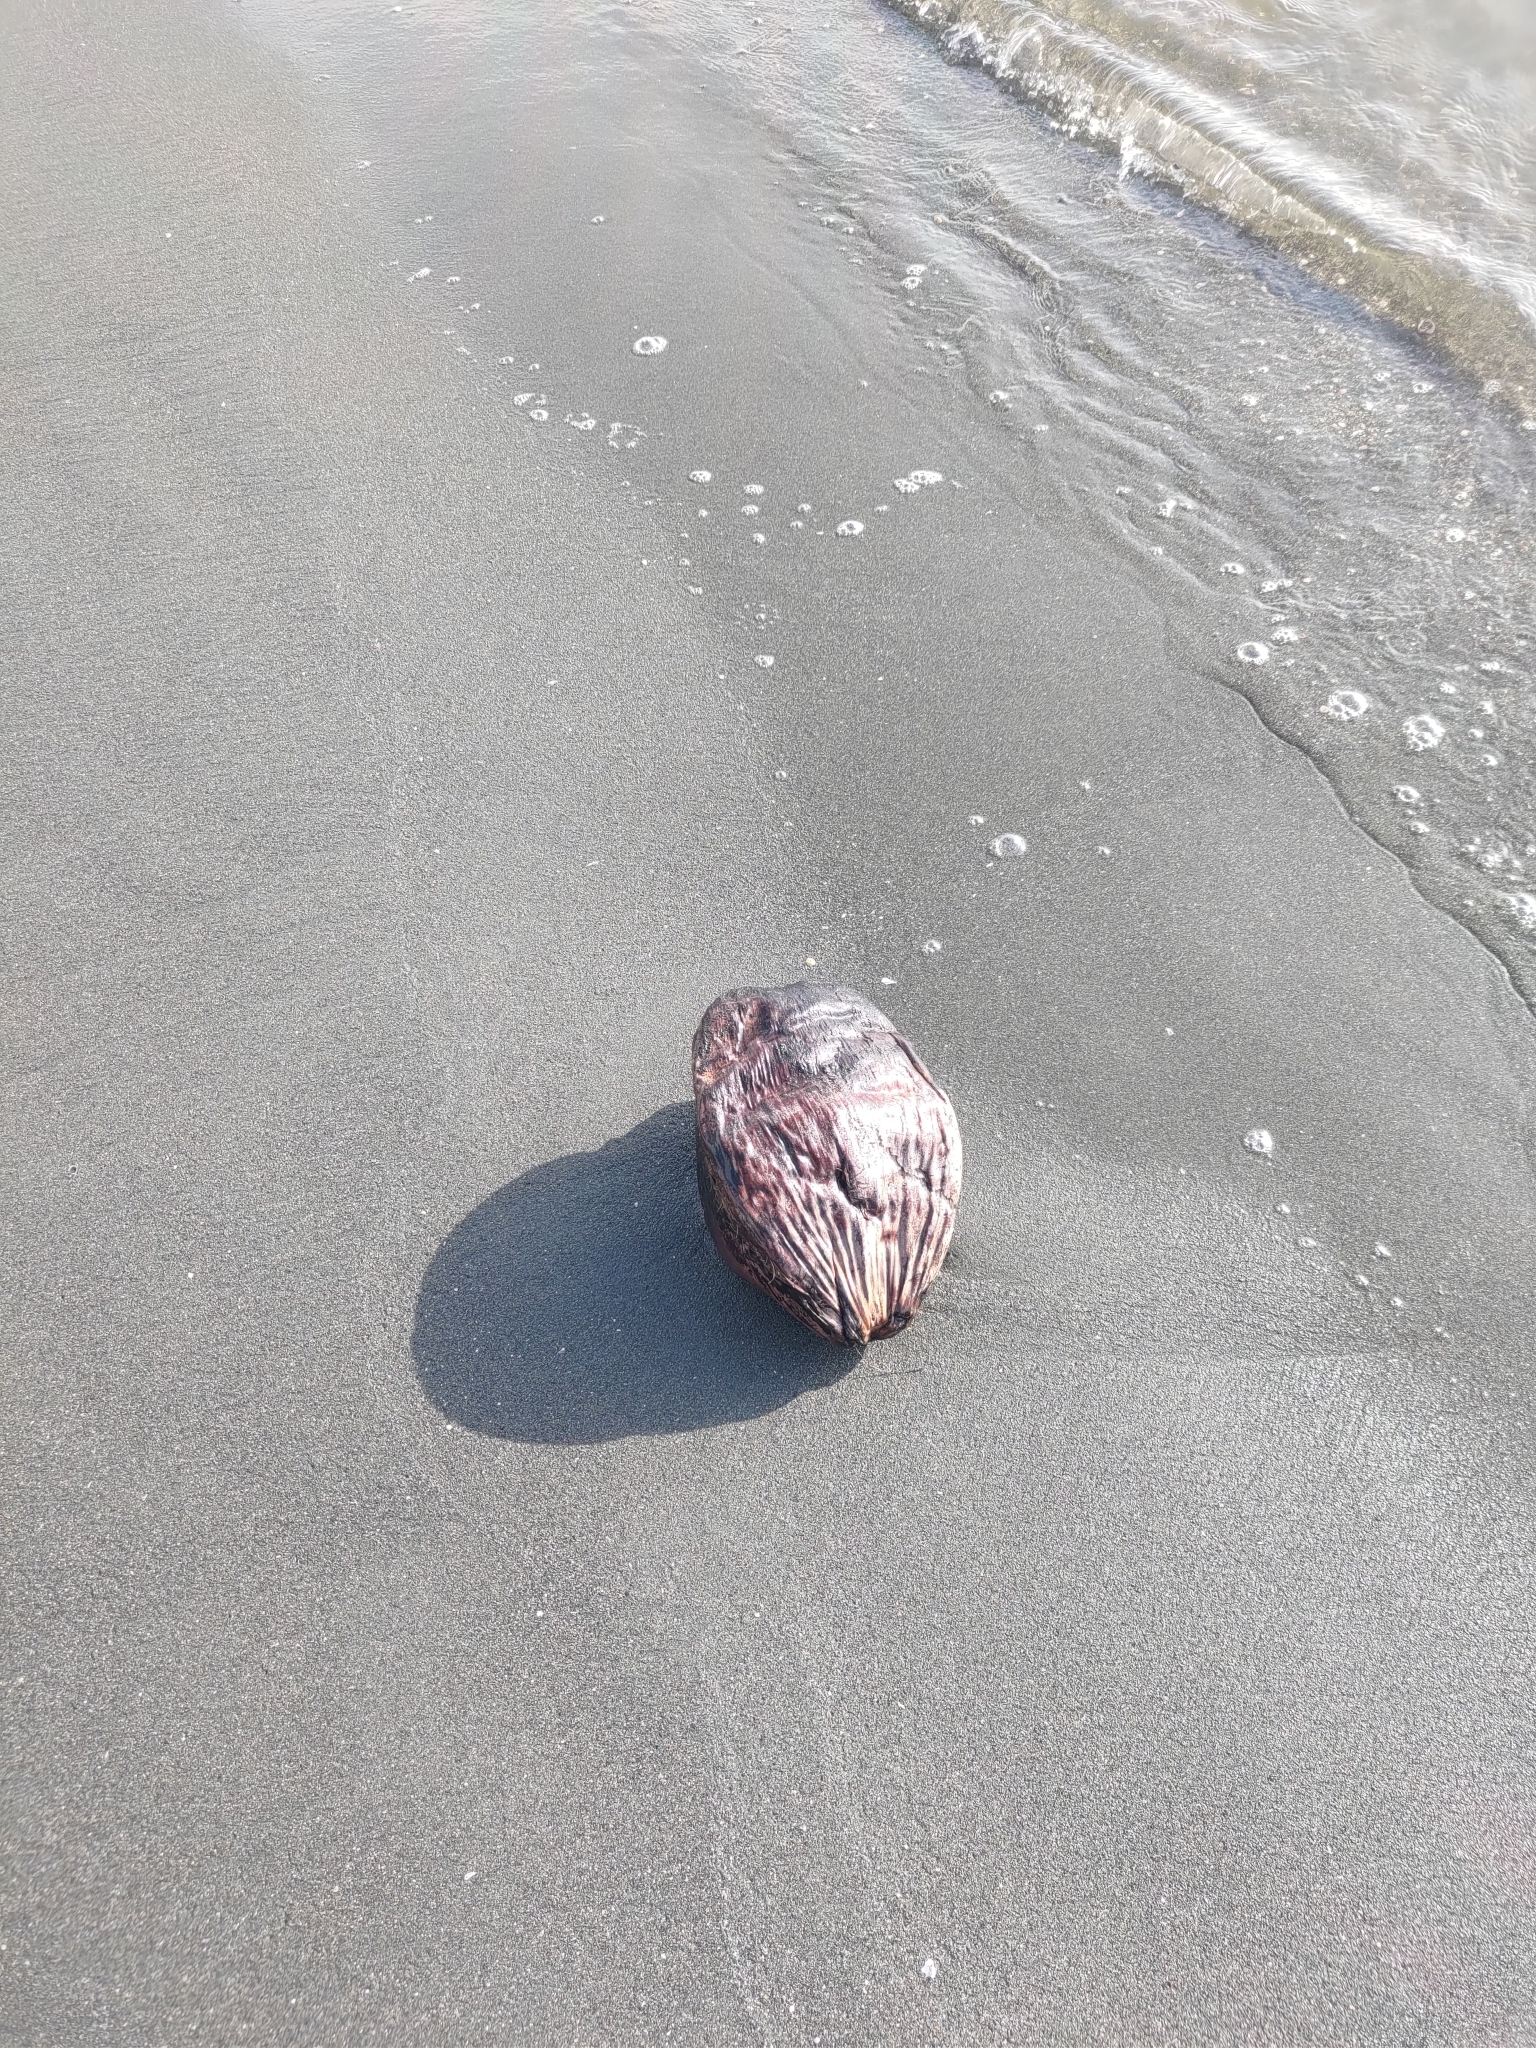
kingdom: Plantae
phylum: Tracheophyta
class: Liliopsida
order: Arecales
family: Arecaceae
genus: Cocos
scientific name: Cocos nucifera
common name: Coconut palm
